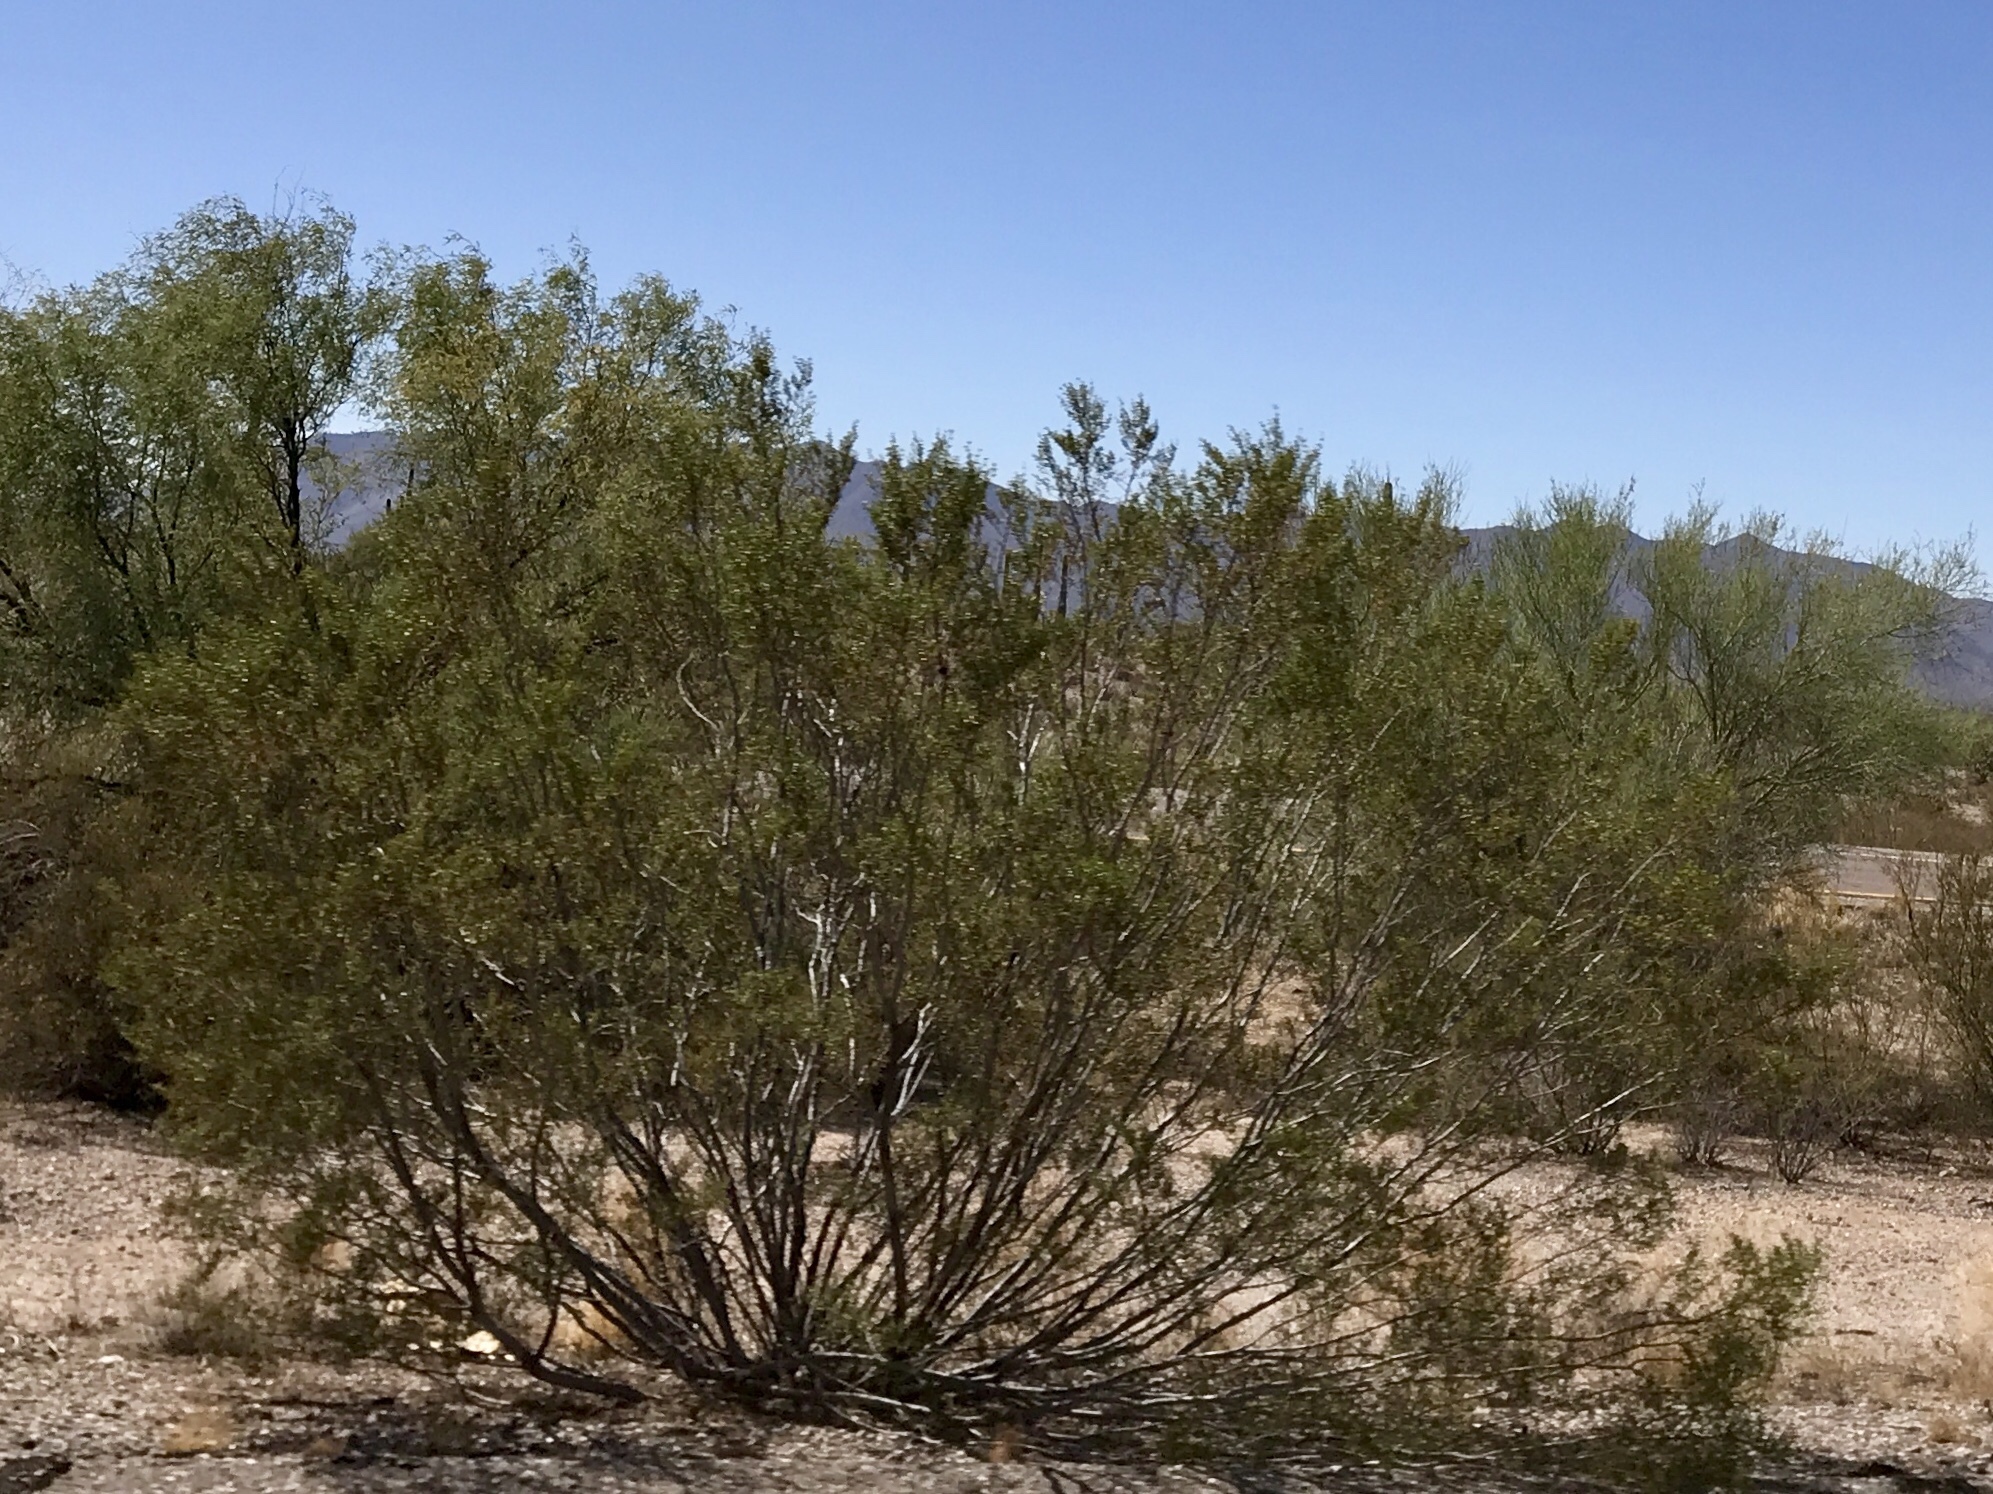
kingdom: Plantae
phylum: Tracheophyta
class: Magnoliopsida
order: Zygophyllales
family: Zygophyllaceae
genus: Larrea
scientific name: Larrea tridentata
